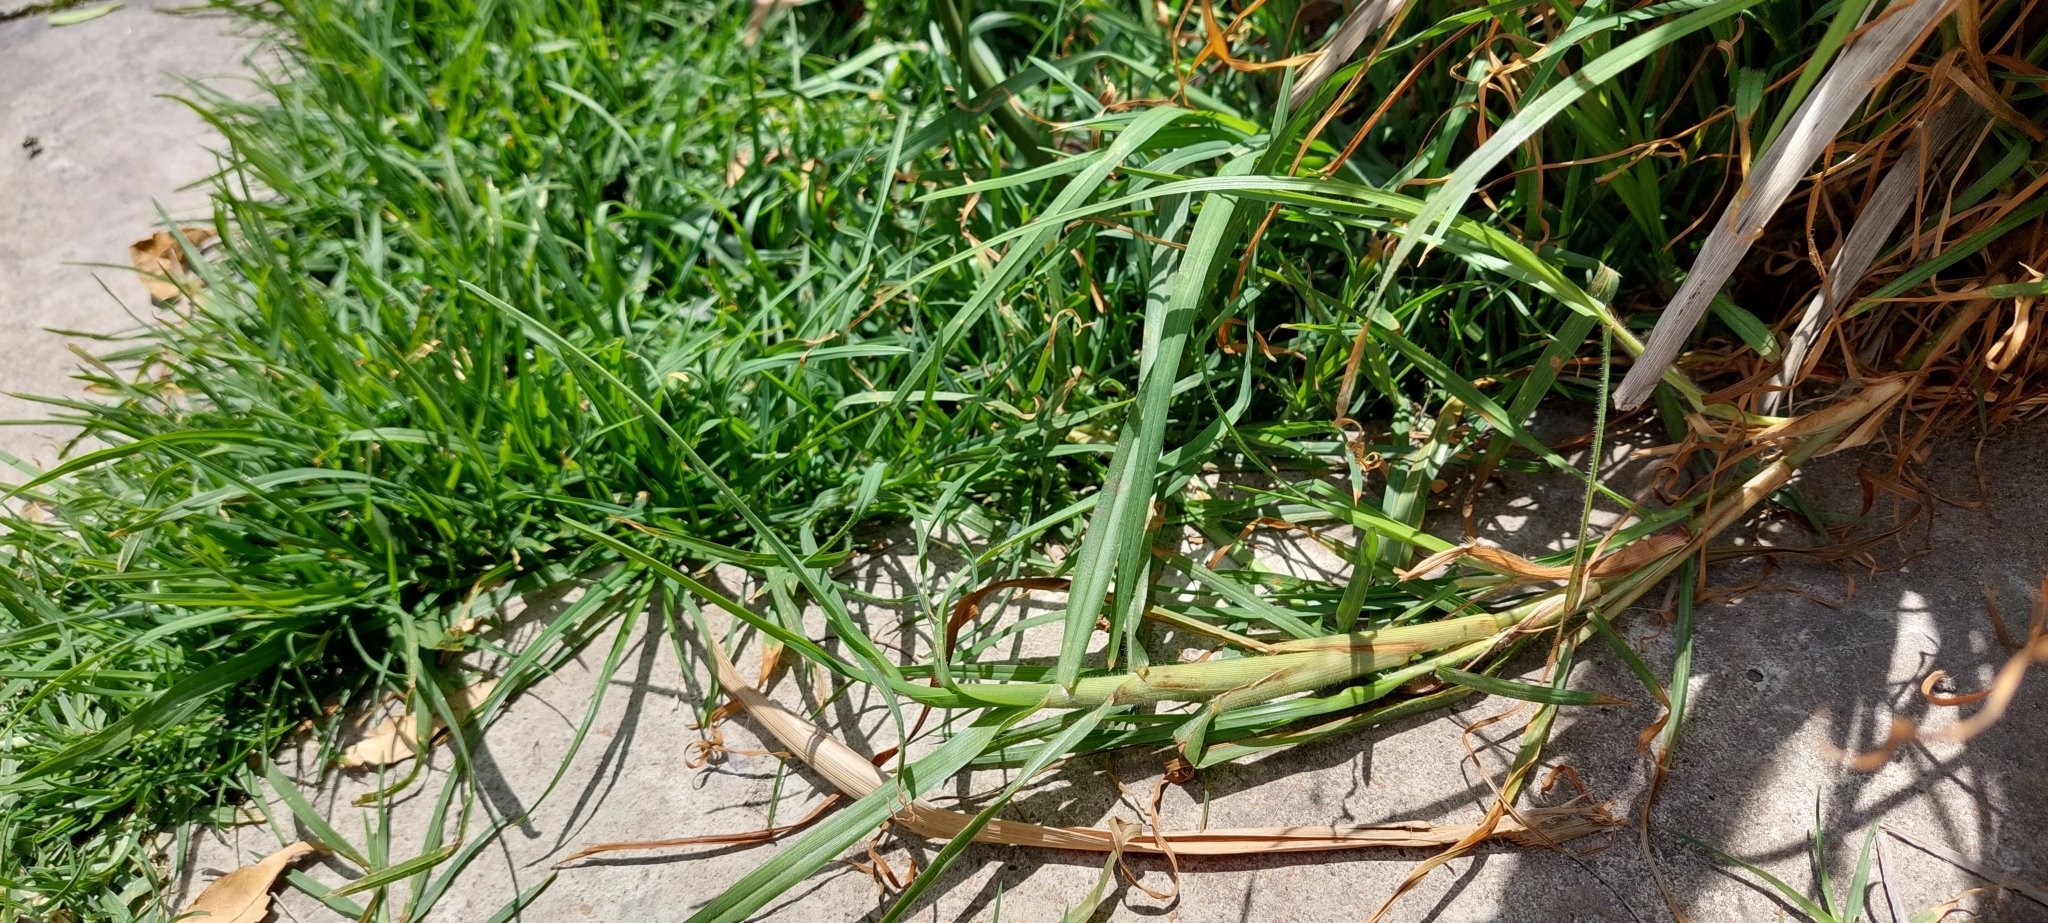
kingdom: Plantae
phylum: Tracheophyta
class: Liliopsida
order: Poales
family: Poaceae
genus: Cenchrus
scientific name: Cenchrus clandestinus
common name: Kikuyugrass
